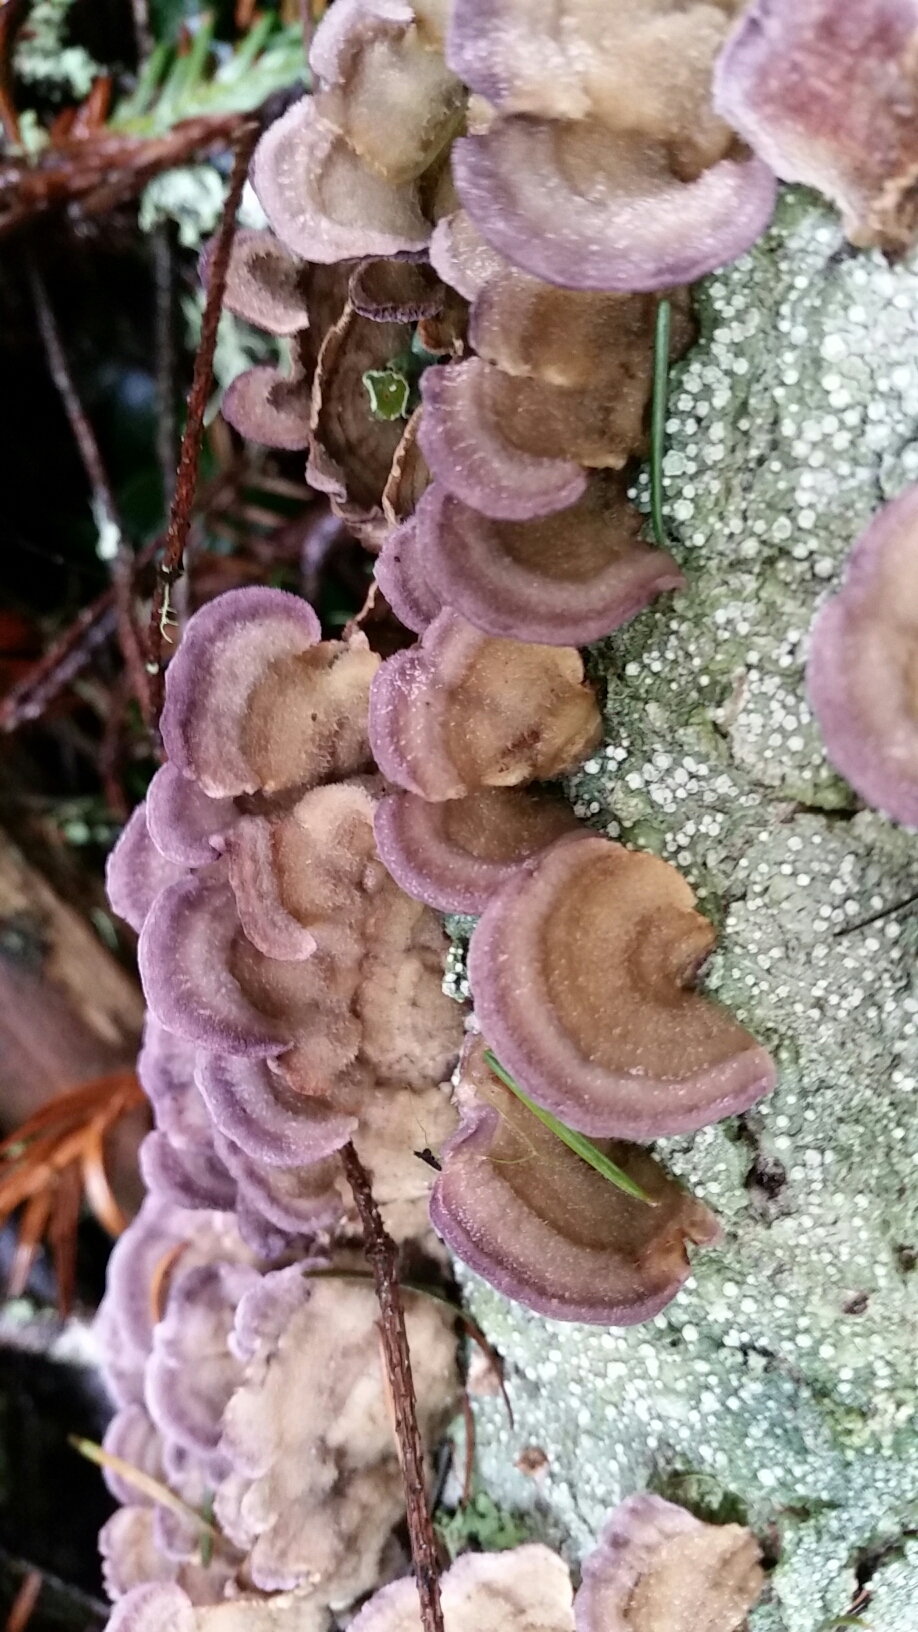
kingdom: Fungi
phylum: Basidiomycota
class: Agaricomycetes
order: Hymenochaetales
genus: Trichaptum
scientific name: Trichaptum biforme
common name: Violet-toothed polypore
